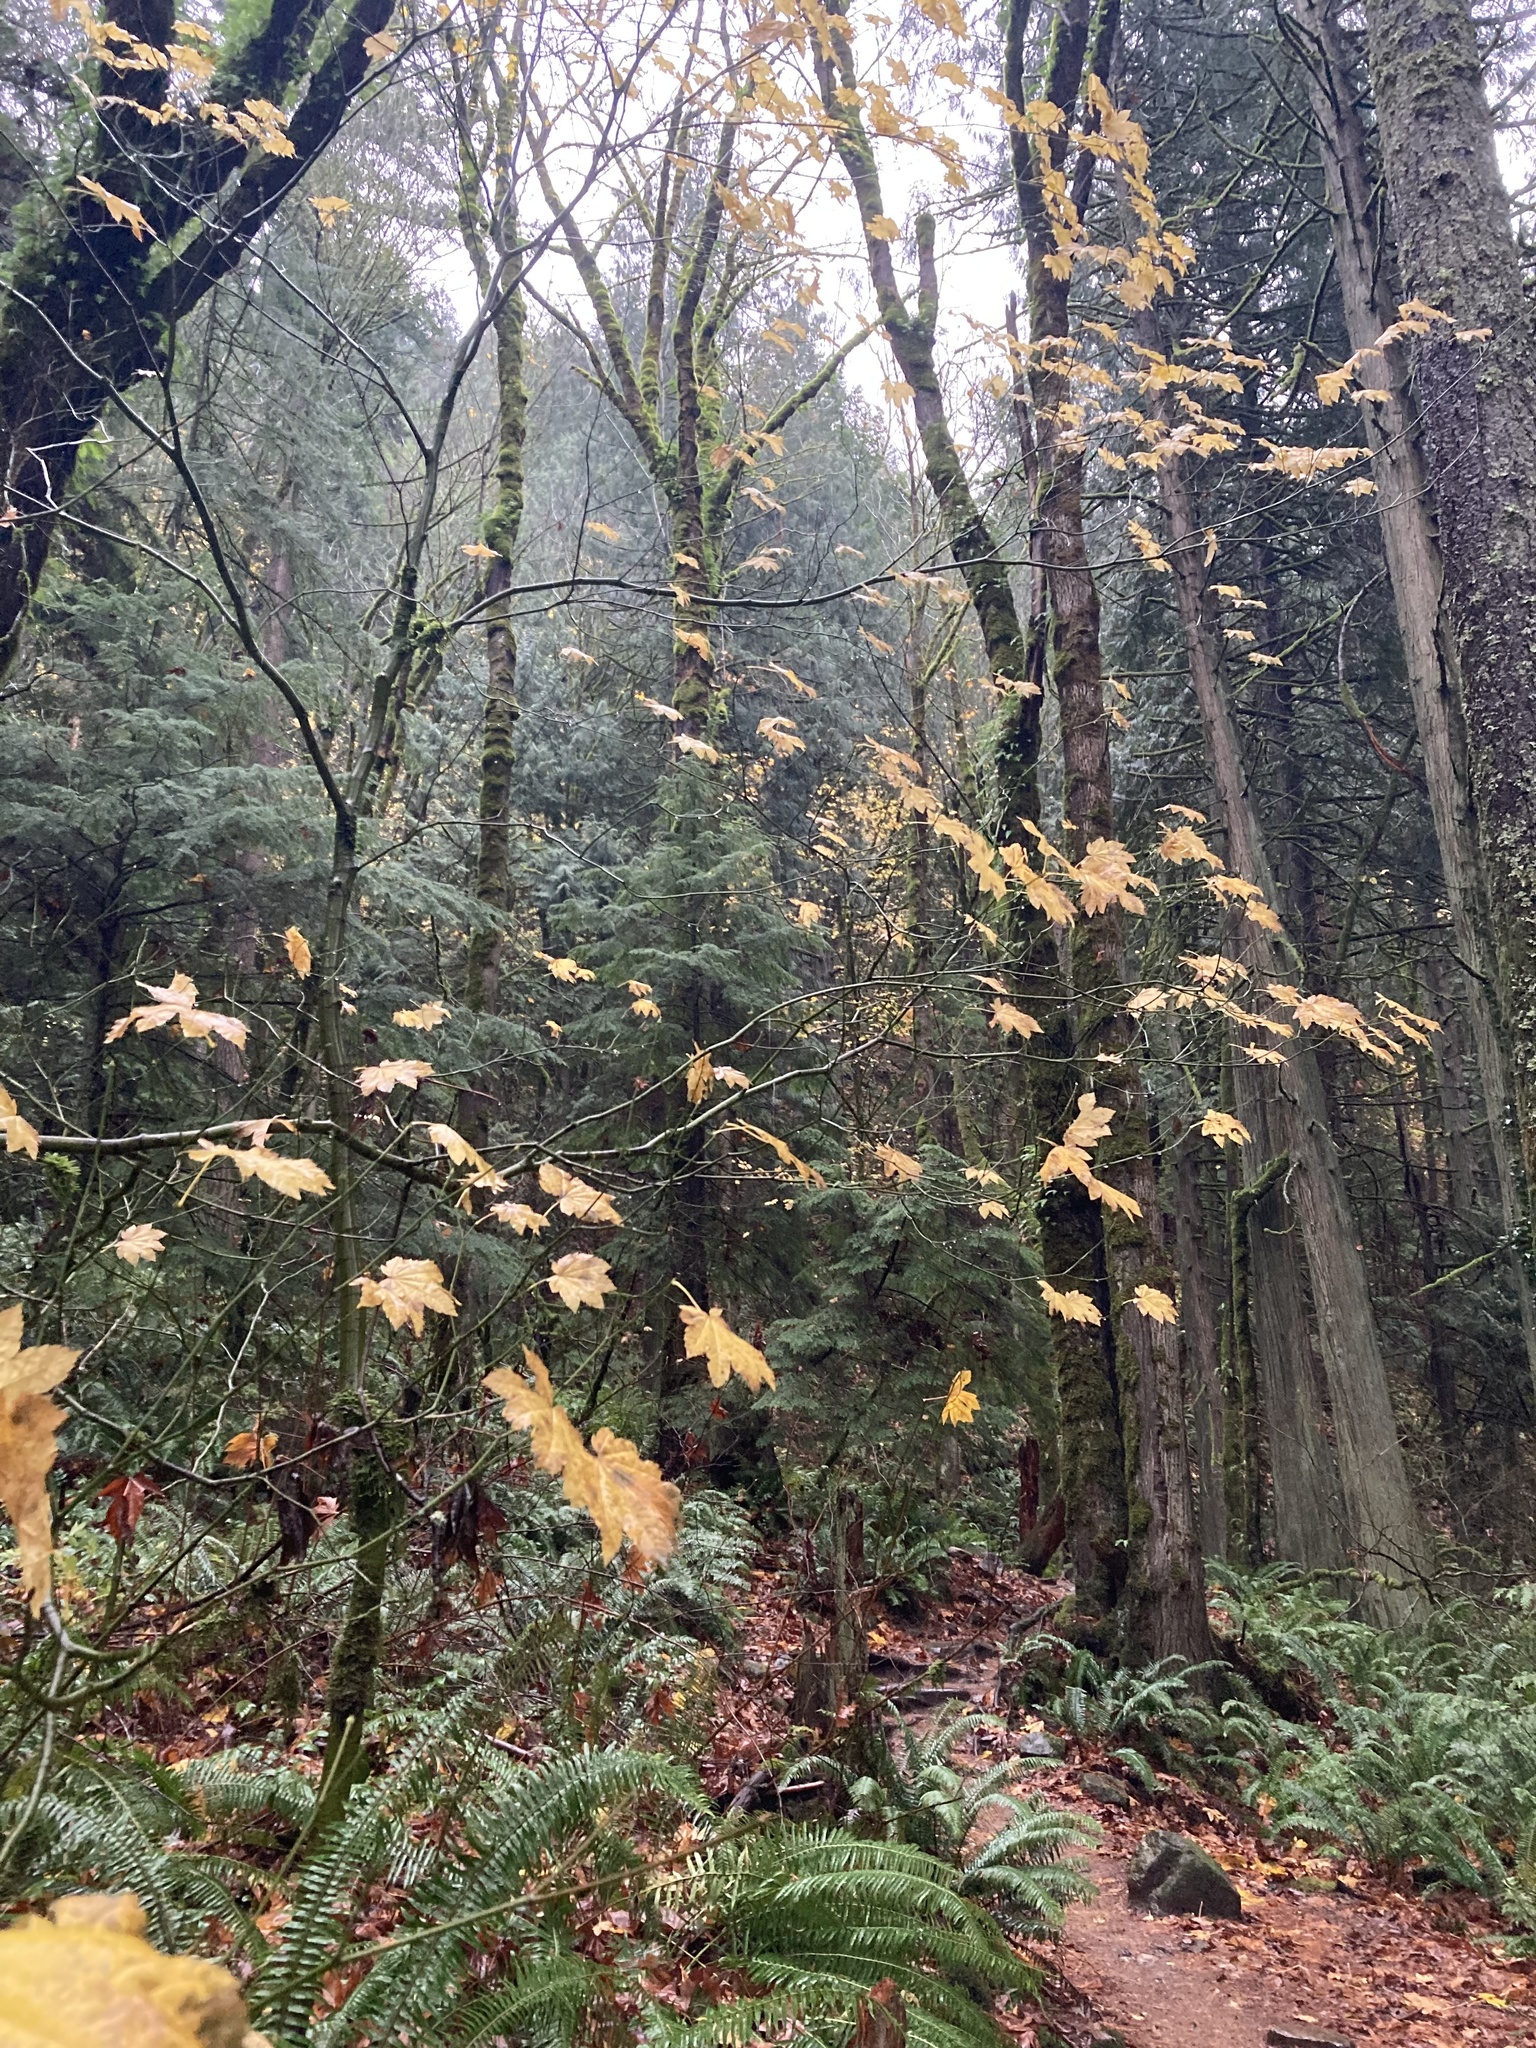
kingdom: Plantae
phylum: Tracheophyta
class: Magnoliopsida
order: Sapindales
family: Sapindaceae
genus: Acer
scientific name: Acer circinatum
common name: Vine maple
